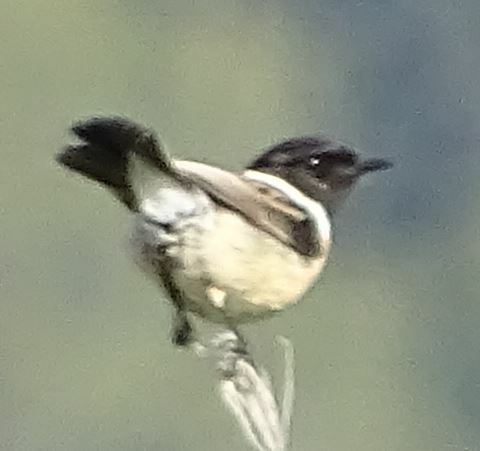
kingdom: Animalia
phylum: Chordata
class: Aves
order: Passeriformes
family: Muscicapidae
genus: Saxicola
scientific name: Saxicola rubicola
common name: European stonechat
